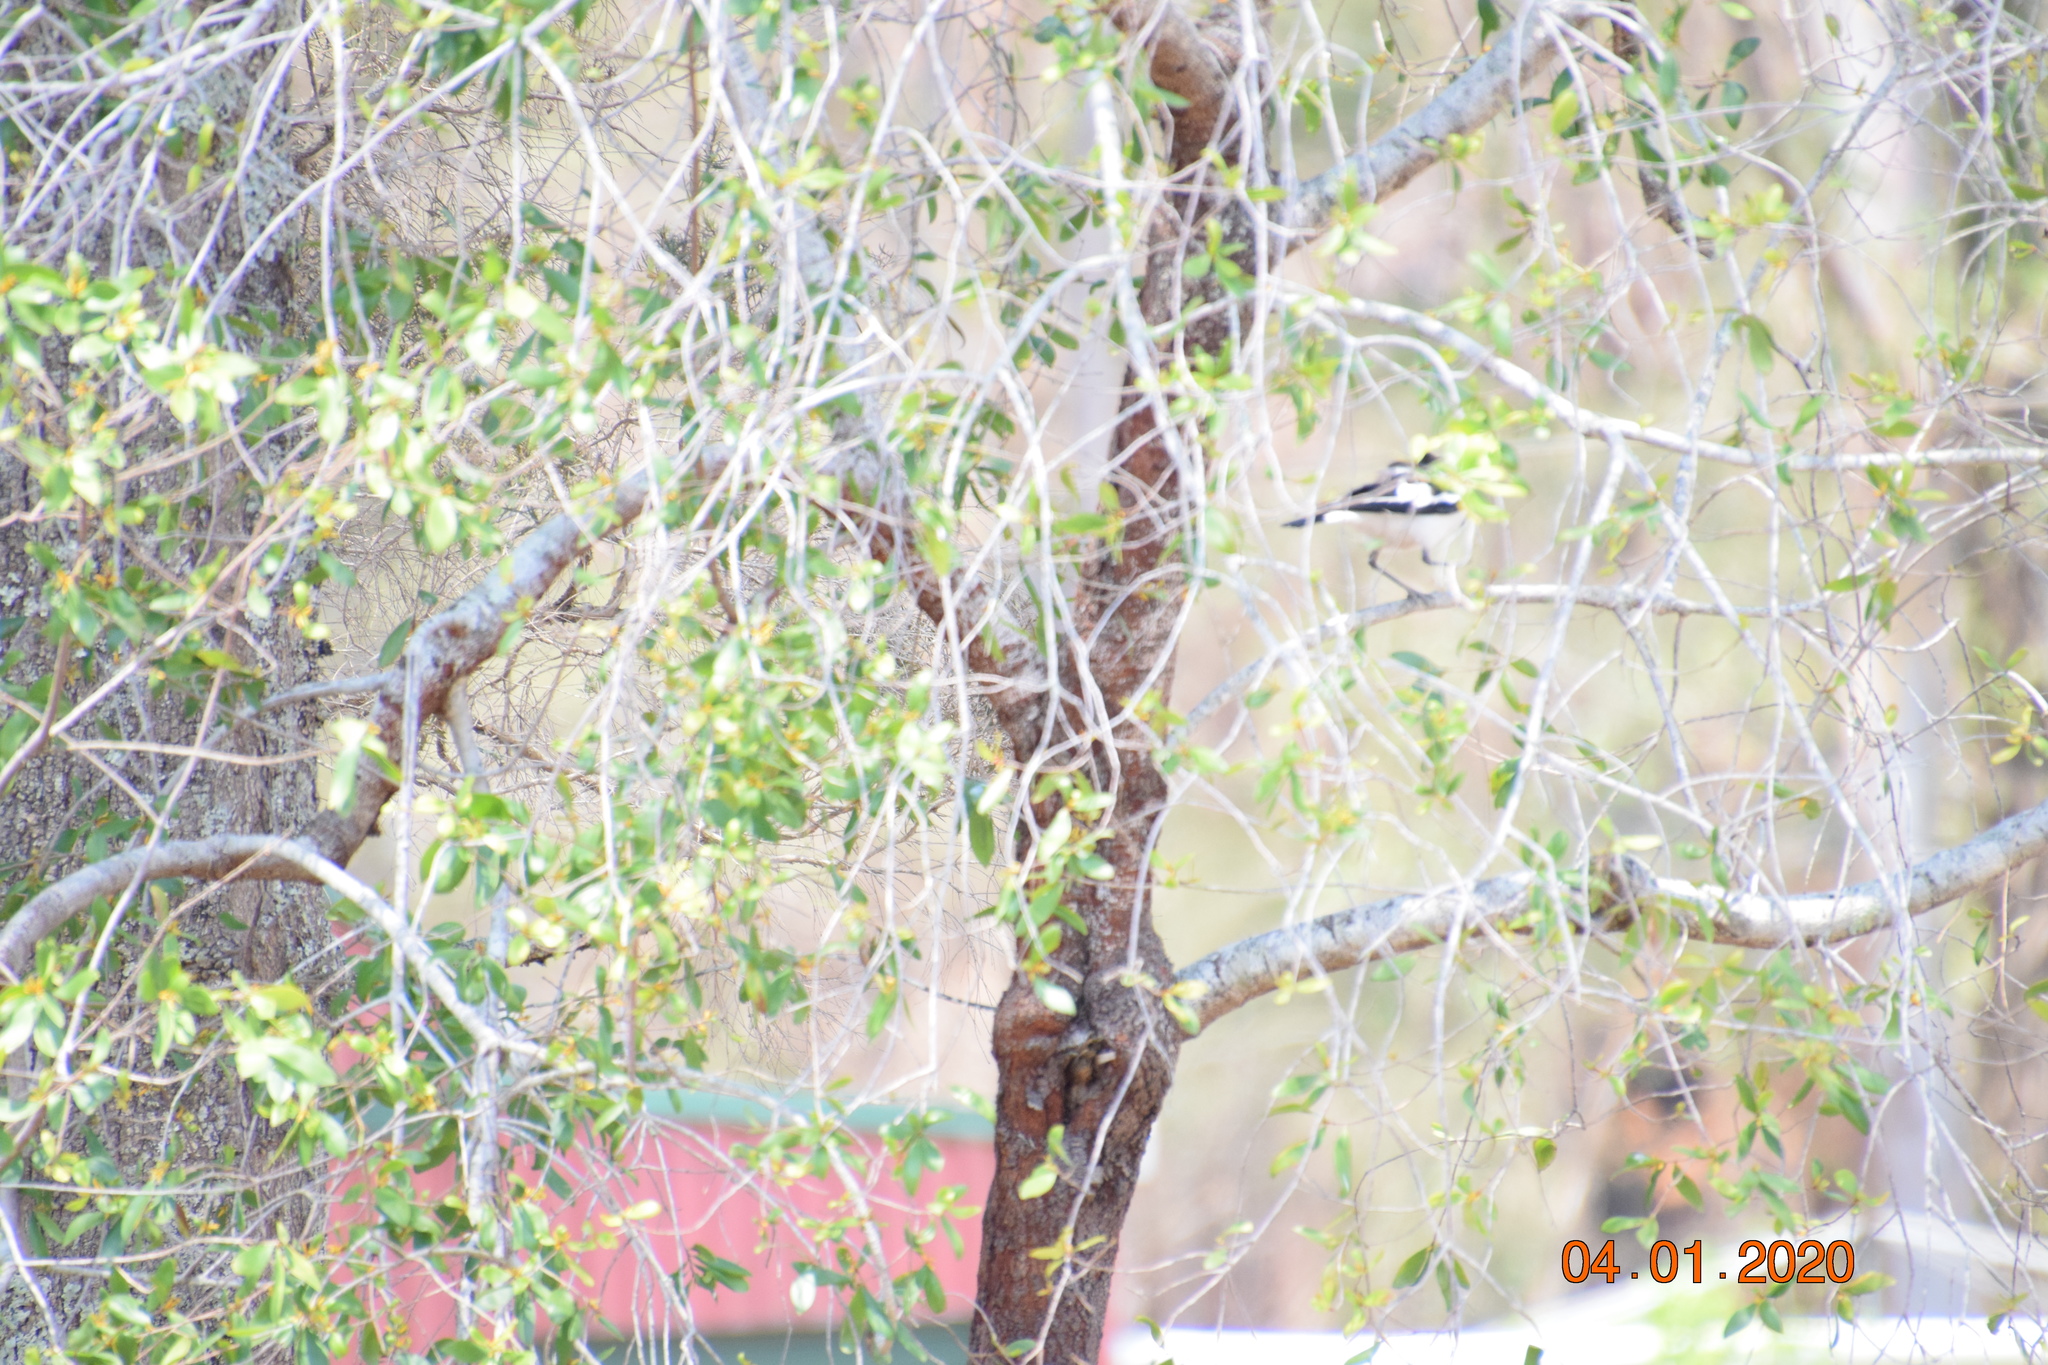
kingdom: Animalia
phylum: Chordata
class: Aves
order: Passeriformes
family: Monarchidae
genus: Grallina
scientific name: Grallina cyanoleuca
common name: Magpie-lark
